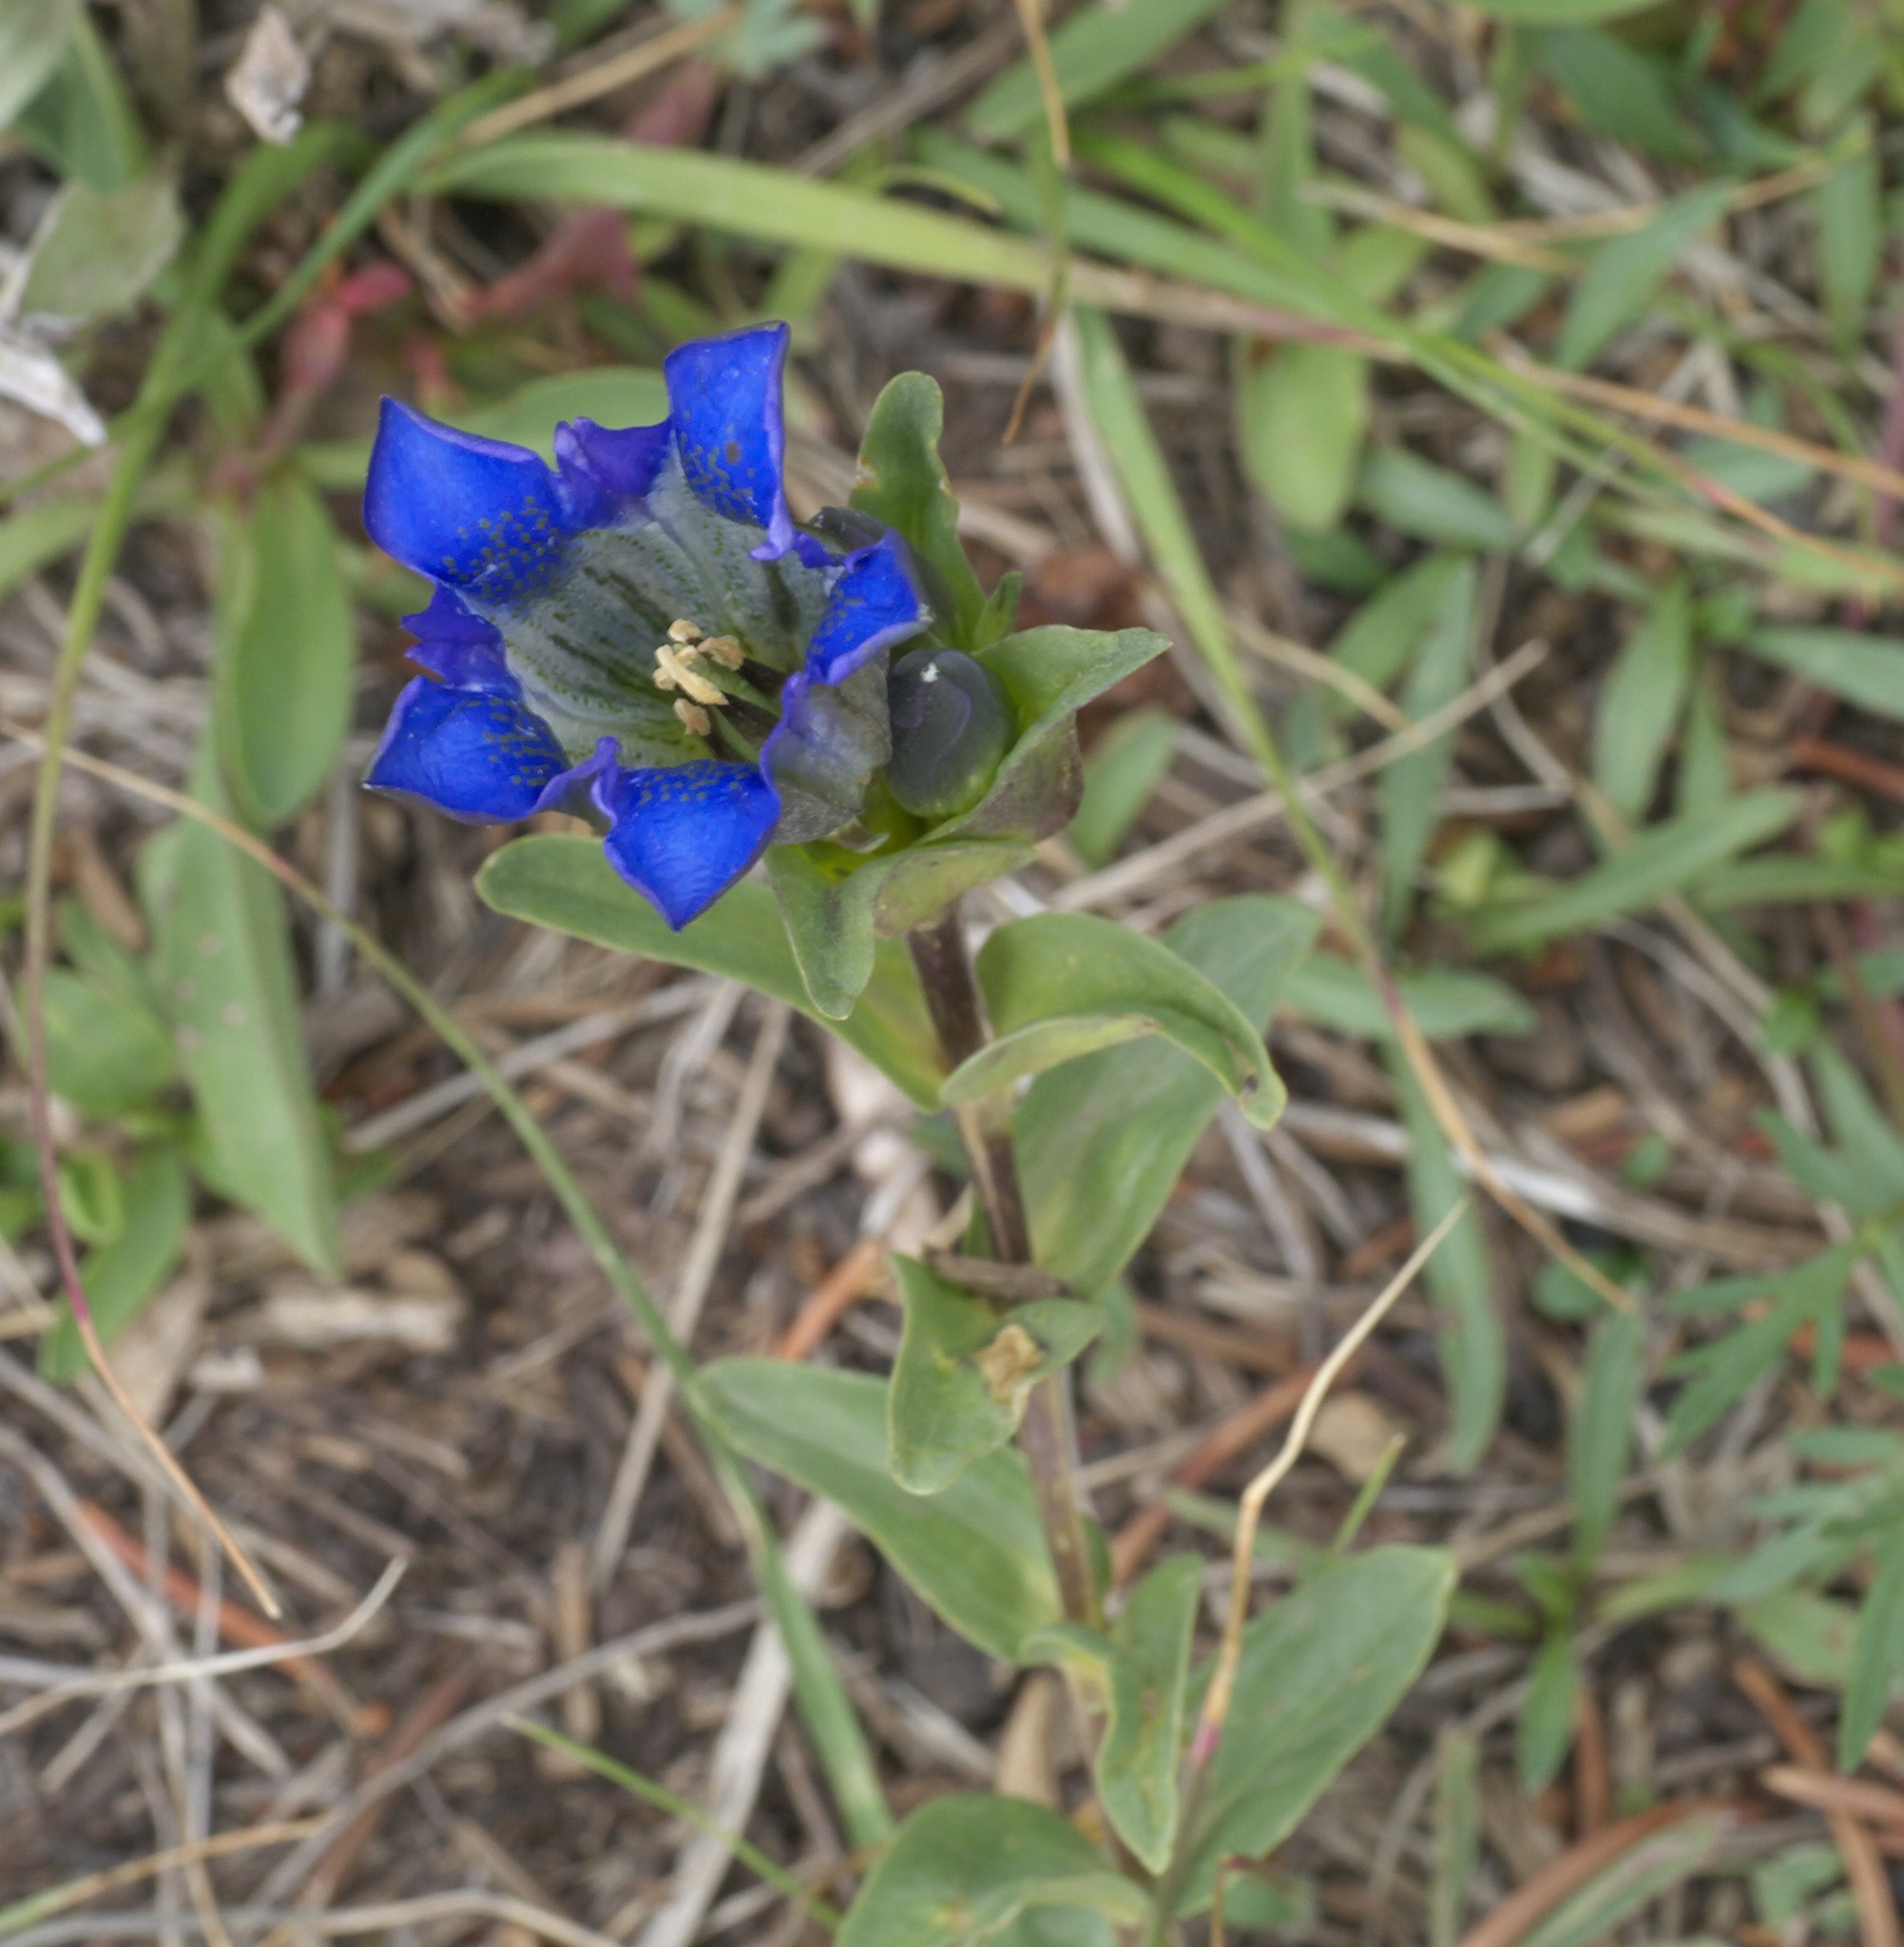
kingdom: Plantae
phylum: Tracheophyta
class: Magnoliopsida
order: Gentianales
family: Gentianaceae
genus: Gentiana
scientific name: Gentiana parryi
